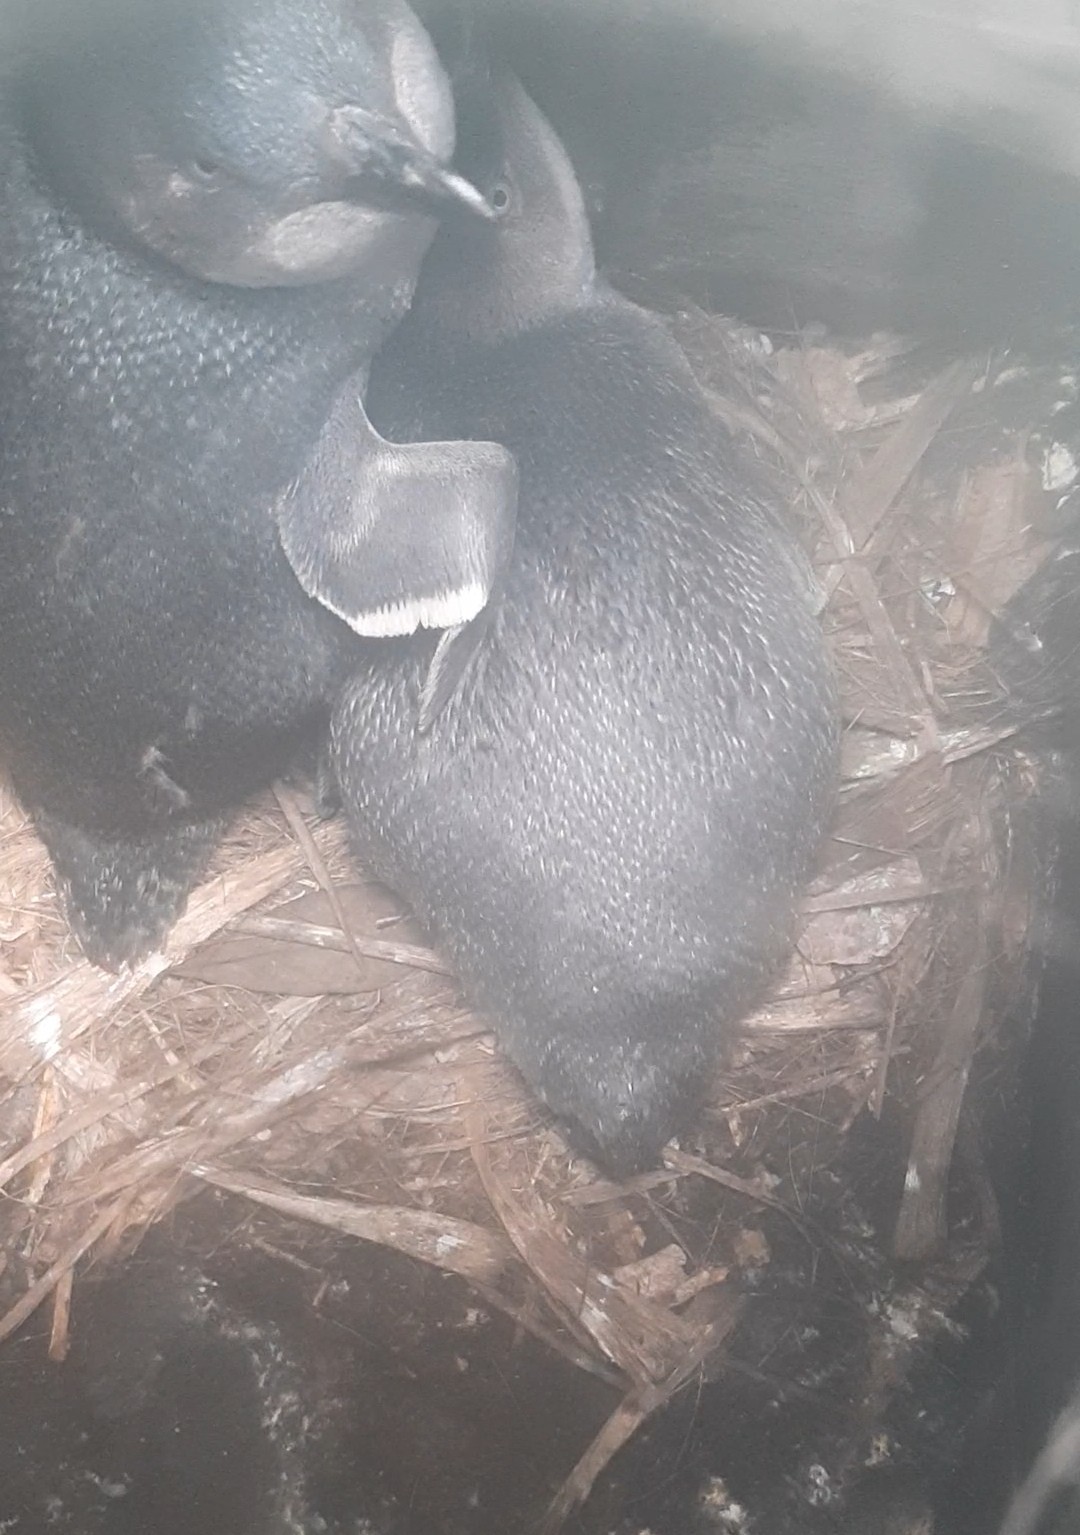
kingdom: Animalia
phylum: Chordata
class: Aves
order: Sphenisciformes
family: Spheniscidae
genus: Eudyptula
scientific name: Eudyptula minor
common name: Little penguin
